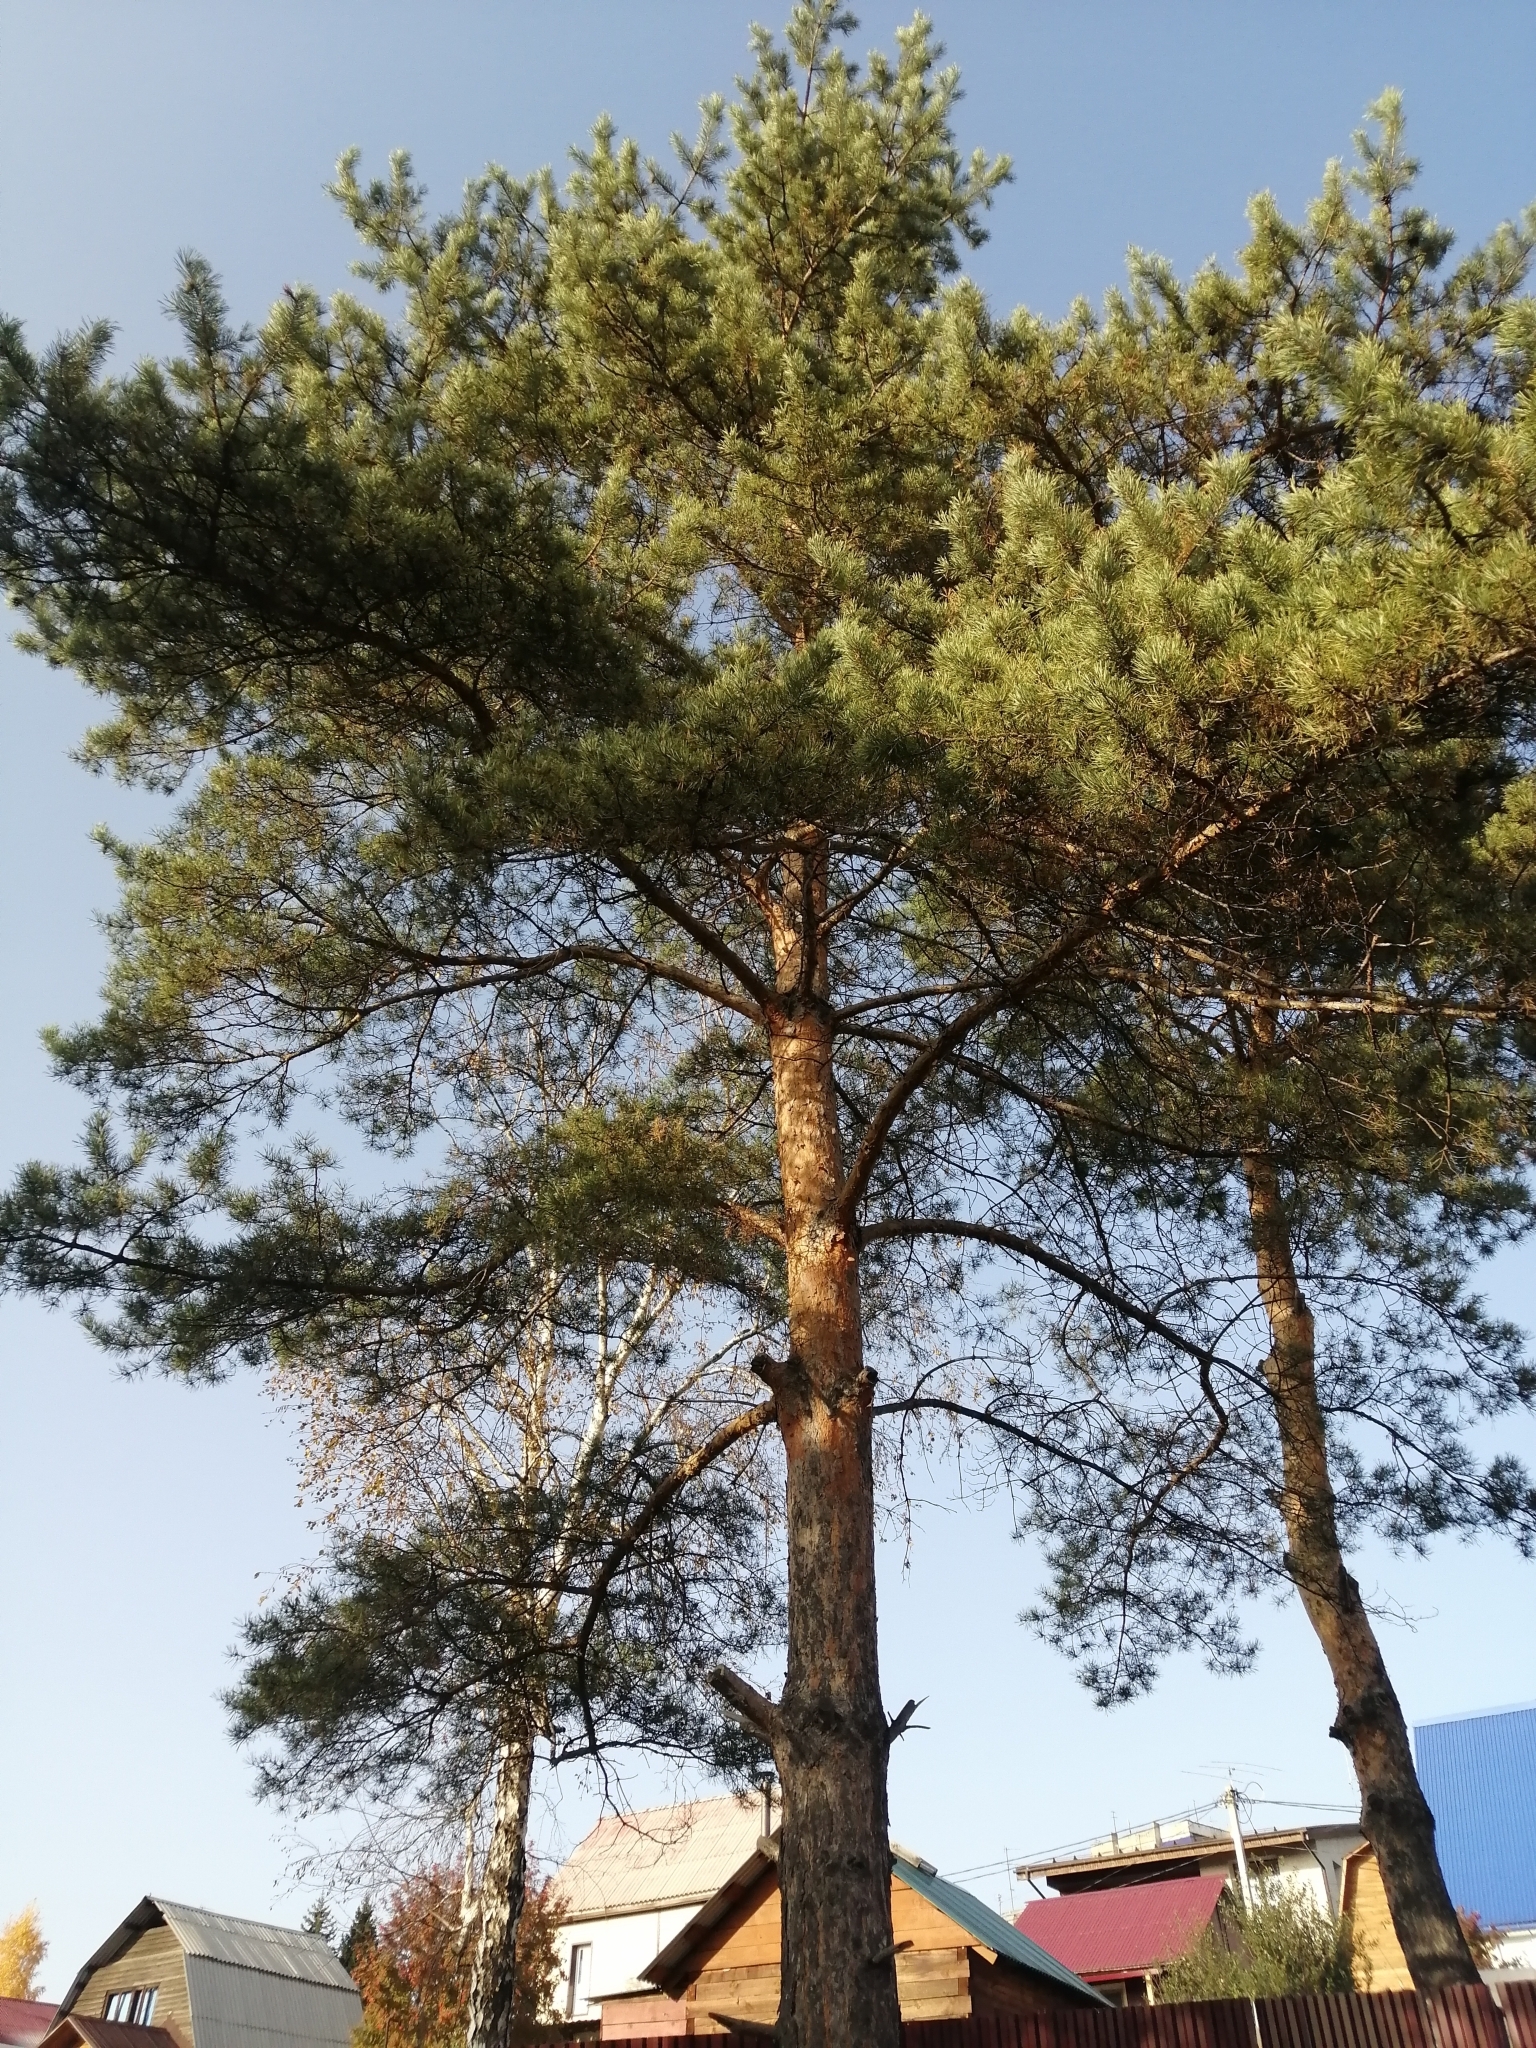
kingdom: Plantae
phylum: Tracheophyta
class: Pinopsida
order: Pinales
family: Pinaceae
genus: Pinus
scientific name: Pinus sylvestris
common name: Scots pine
